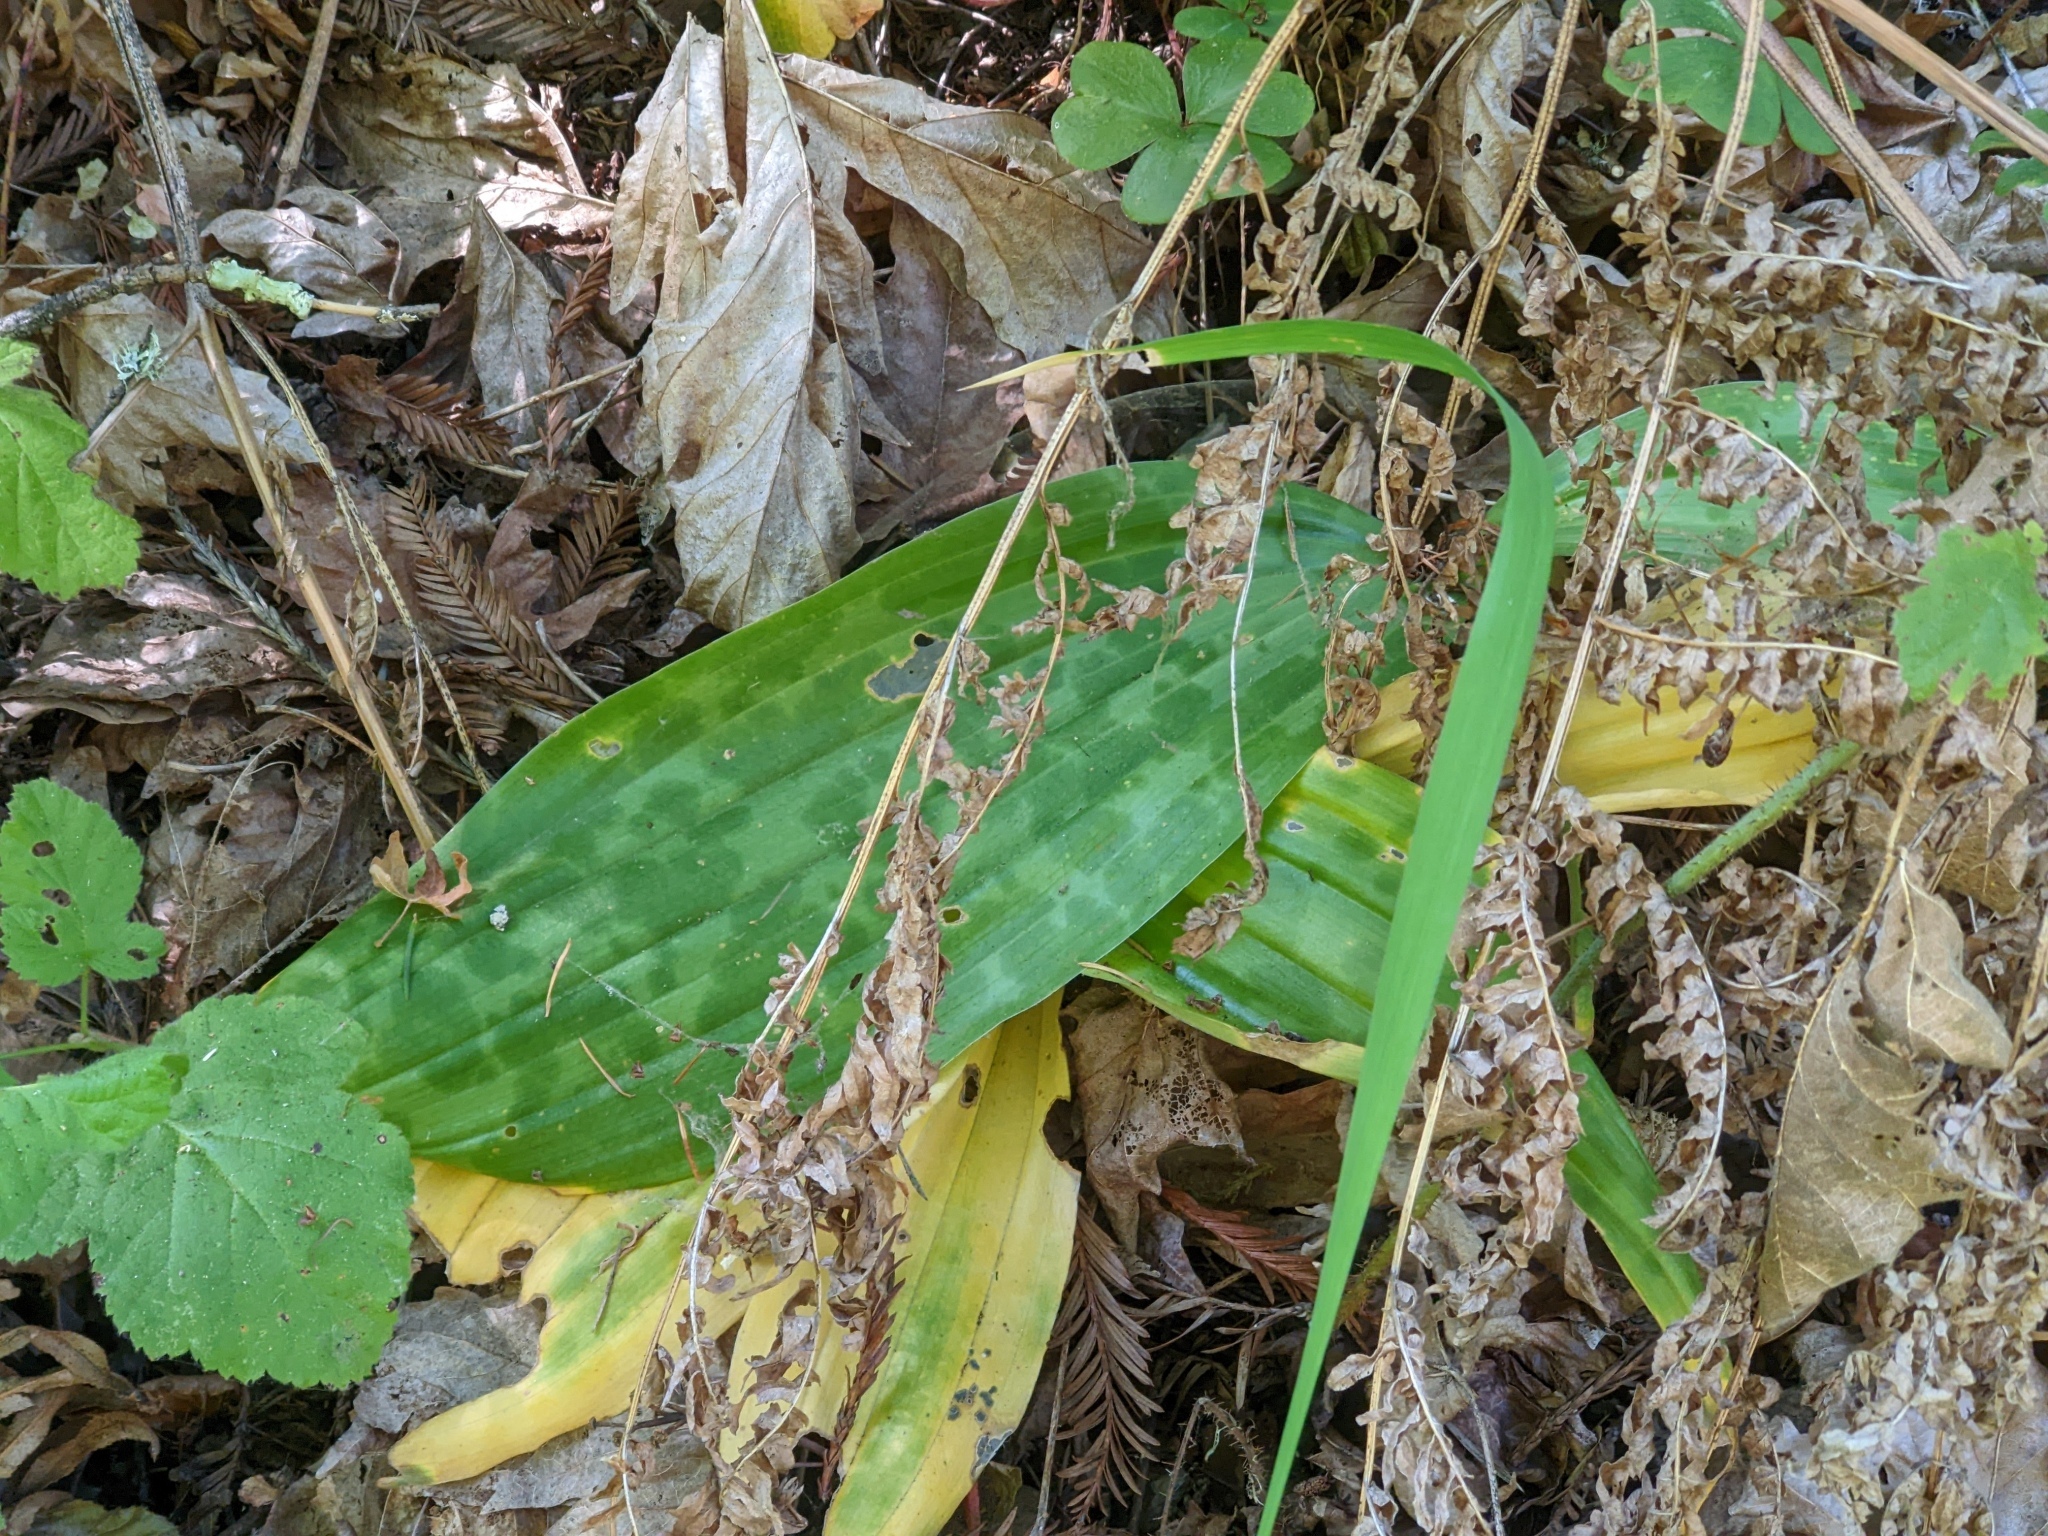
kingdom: Plantae
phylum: Tracheophyta
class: Liliopsida
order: Liliales
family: Liliaceae
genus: Scoliopus
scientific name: Scoliopus bigelovii
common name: Foetid adder's-tongue
